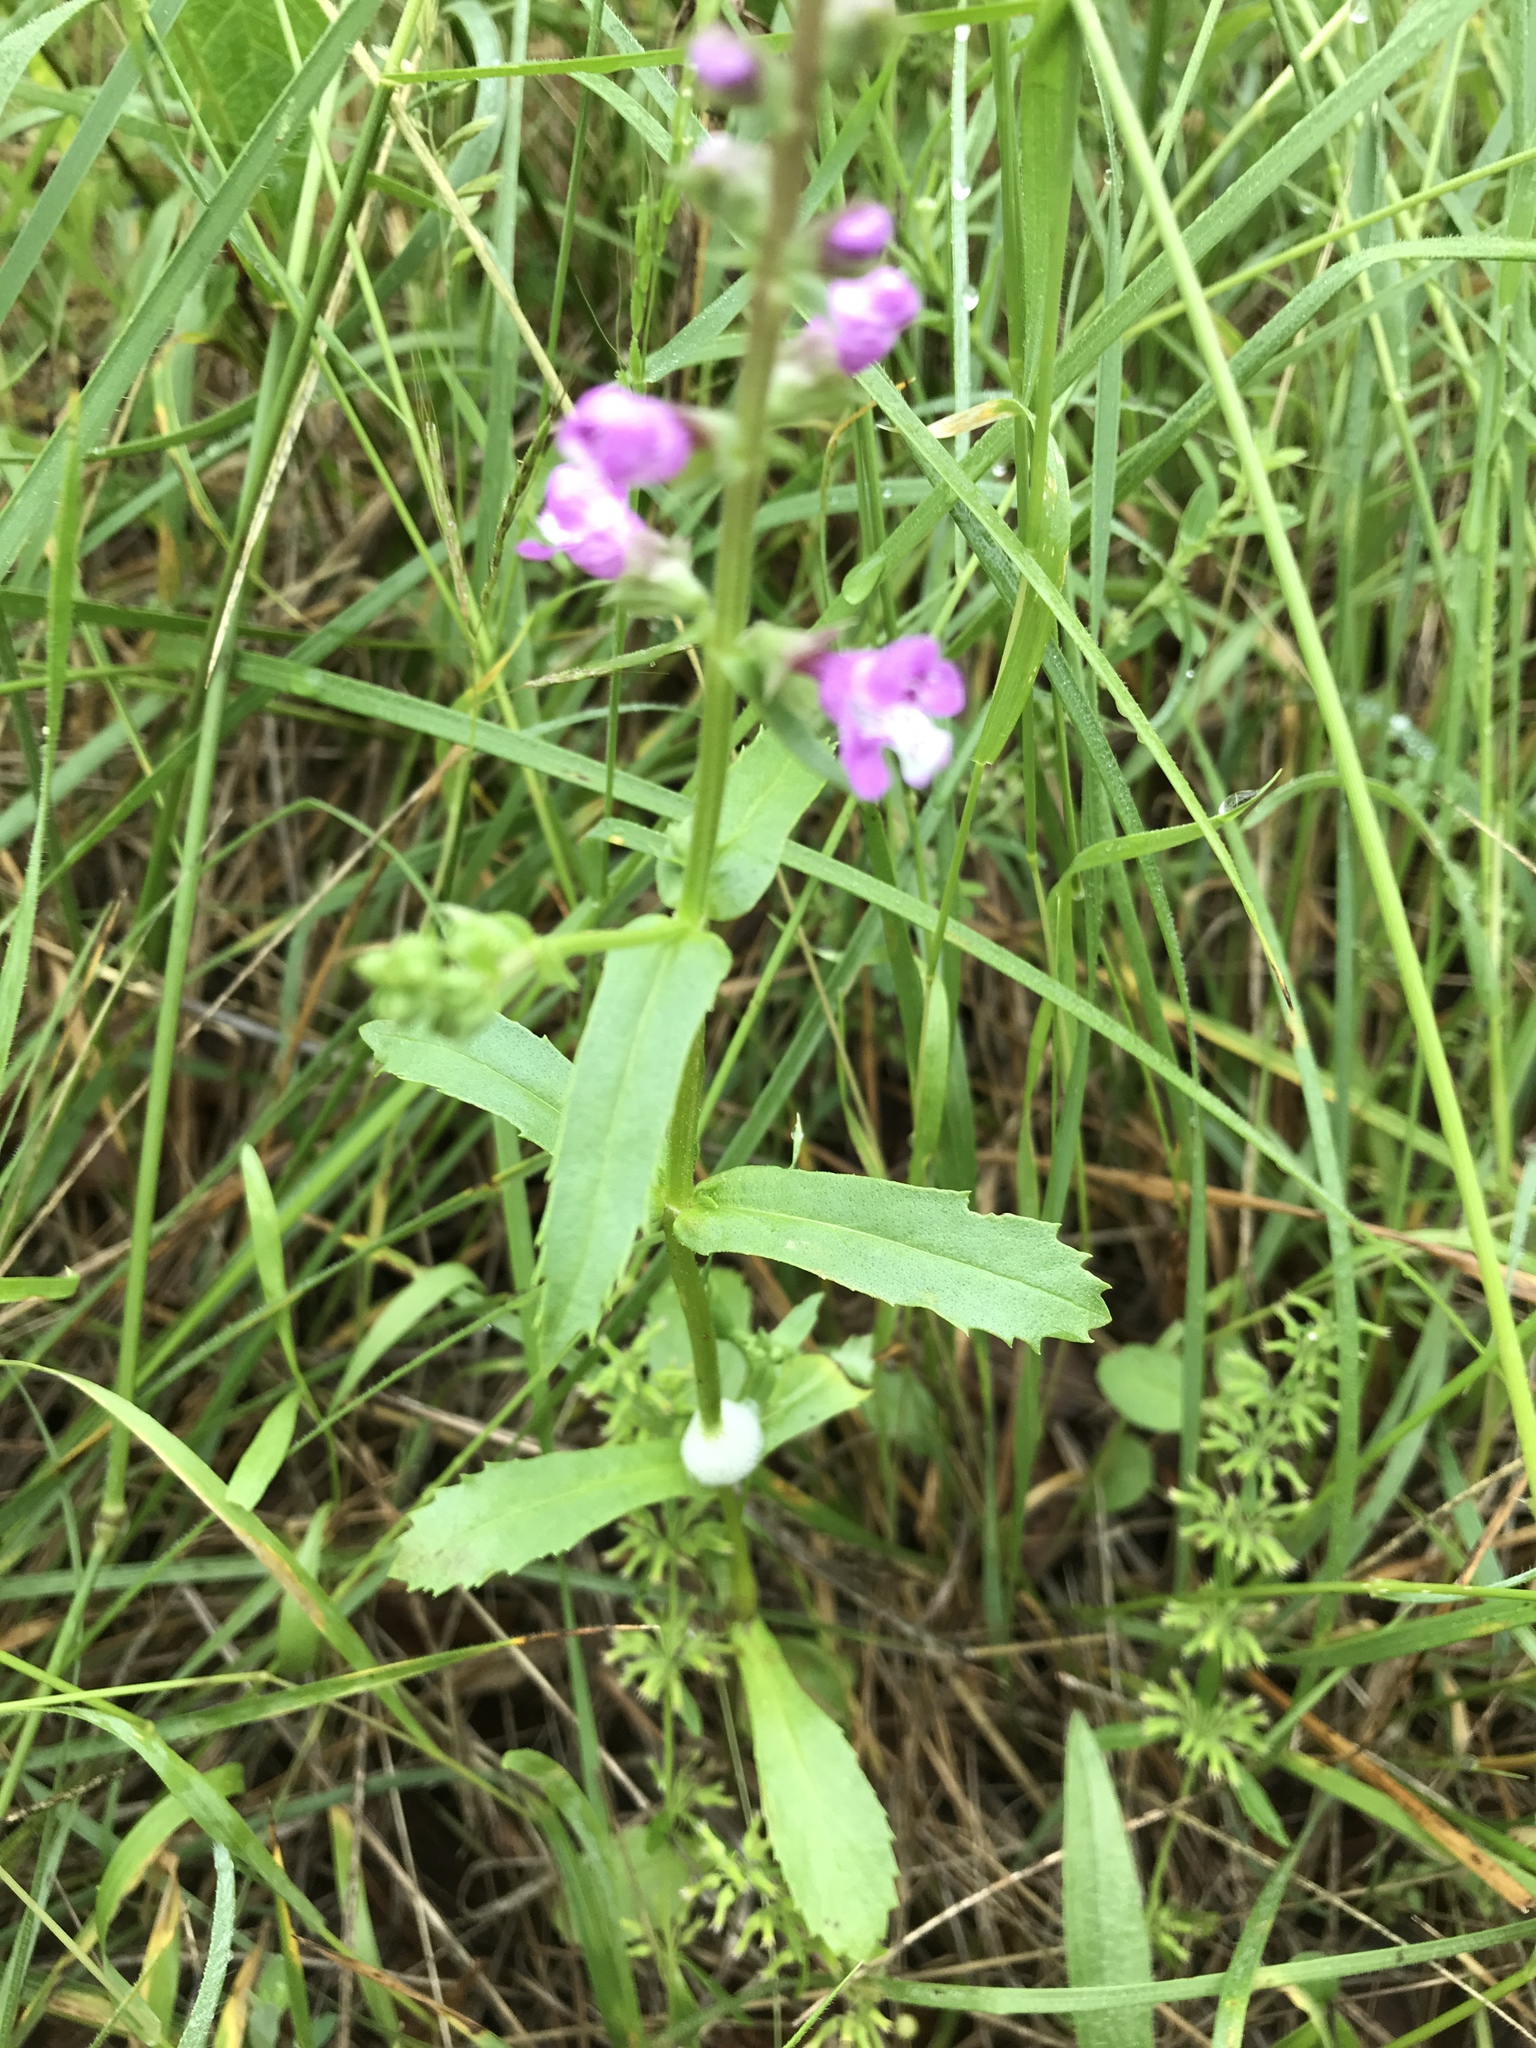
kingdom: Plantae
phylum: Tracheophyta
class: Magnoliopsida
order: Lamiales
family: Lamiaceae
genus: Warnockia
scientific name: Warnockia scutellarioides
